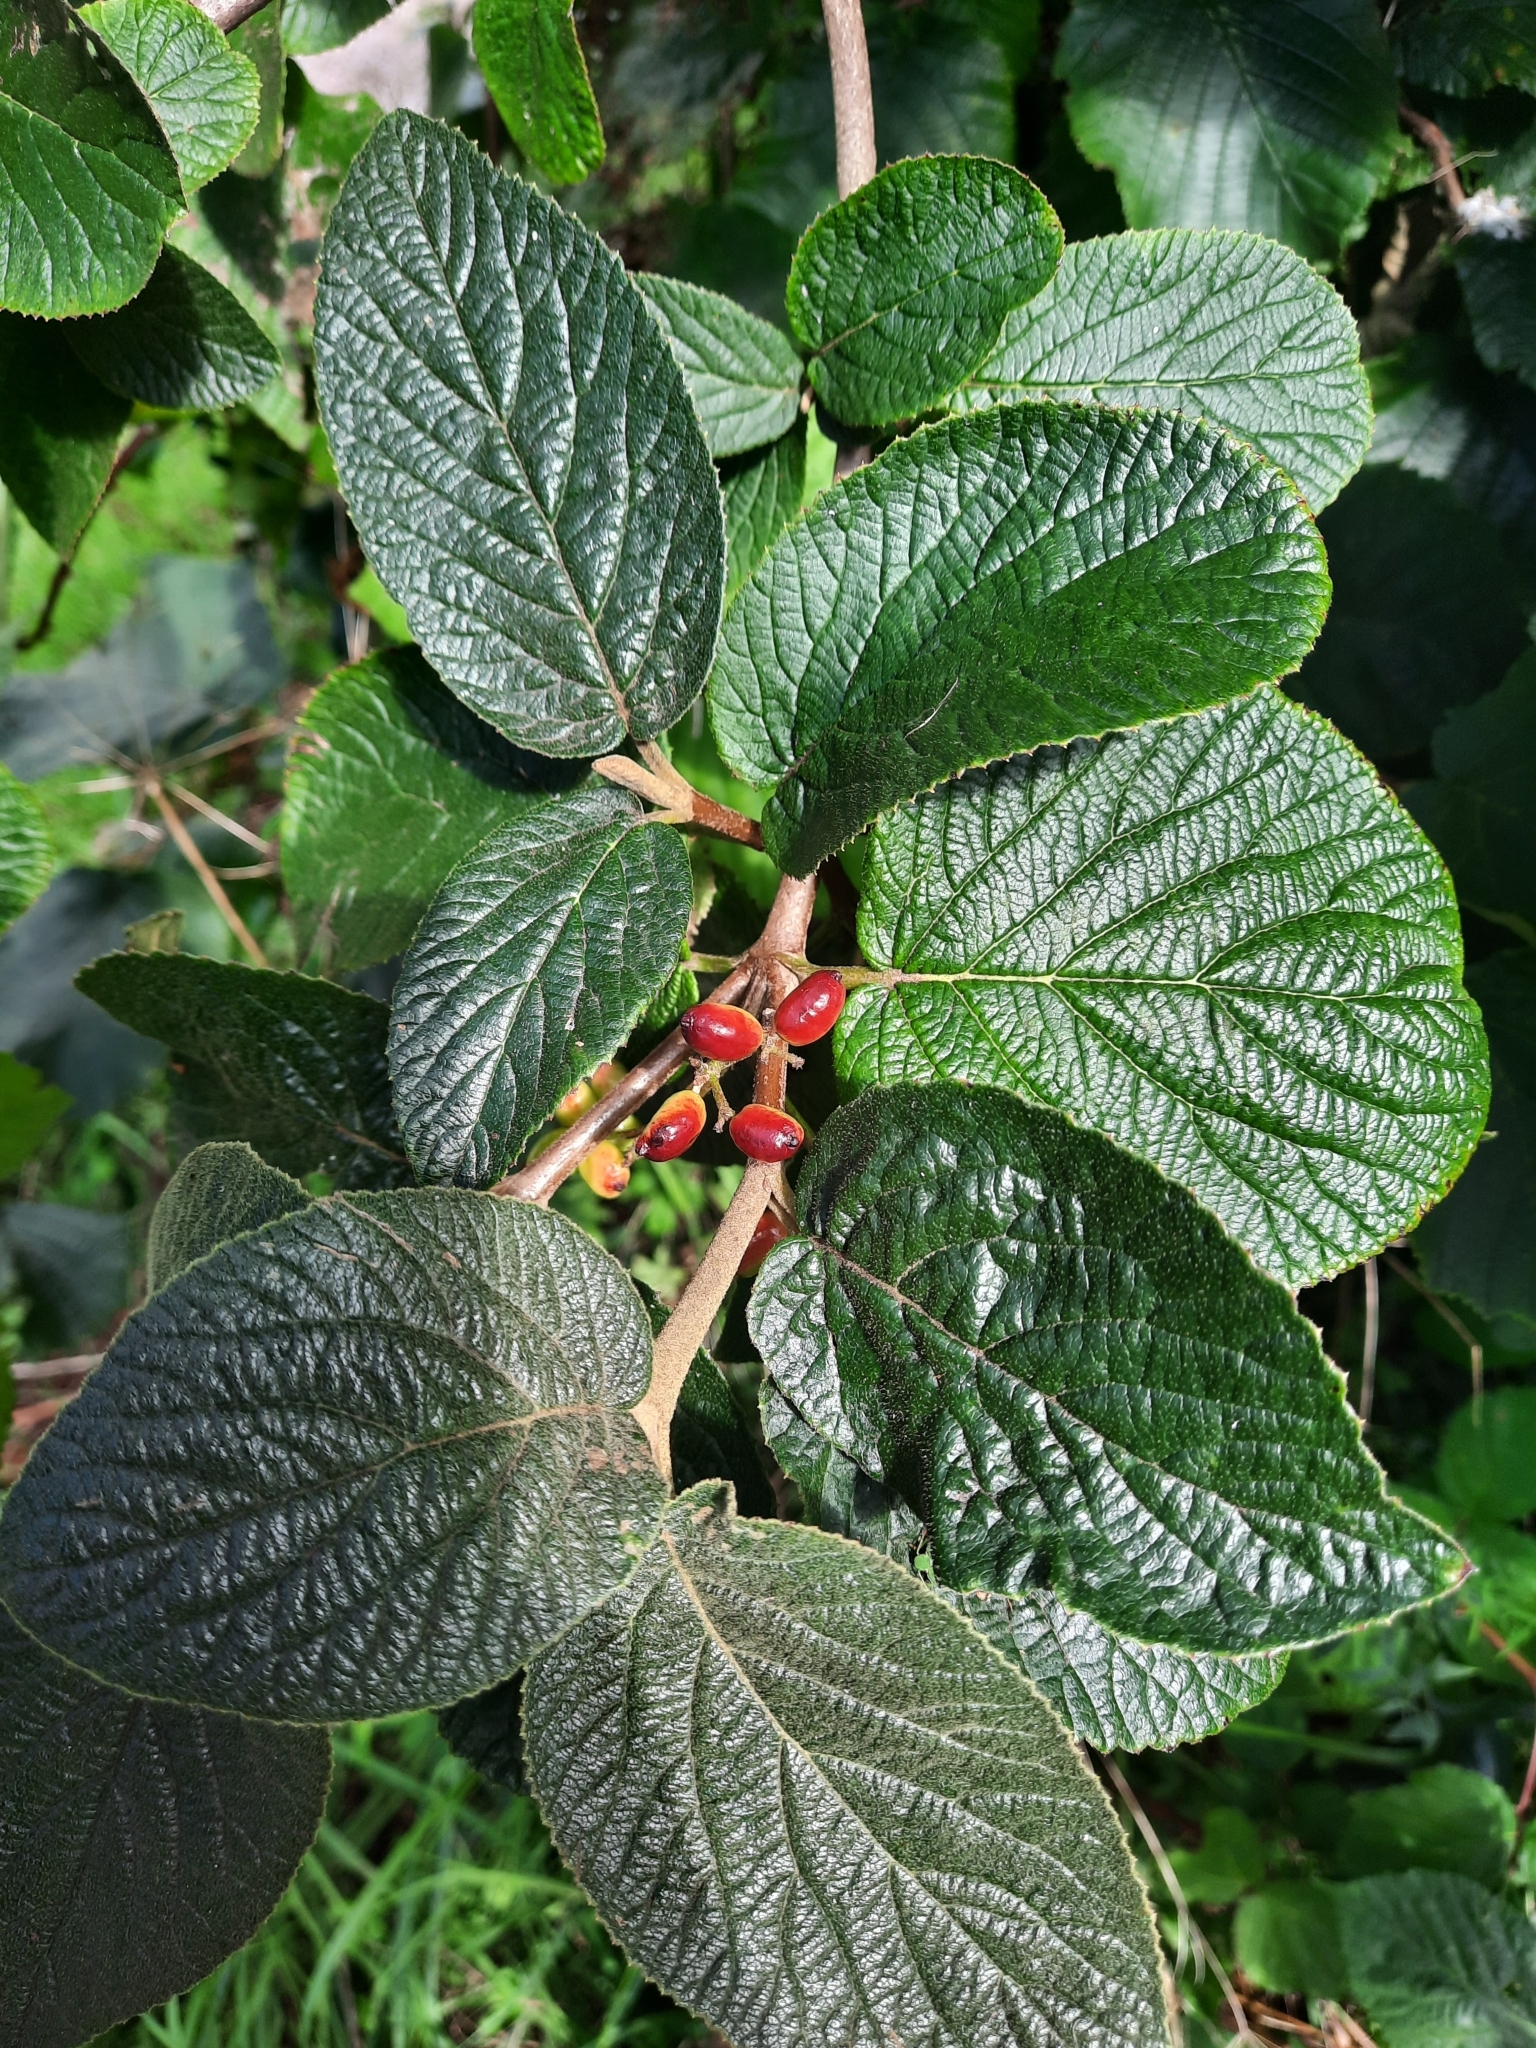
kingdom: Plantae
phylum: Tracheophyta
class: Magnoliopsida
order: Dipsacales
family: Viburnaceae
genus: Viburnum
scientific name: Viburnum lantana
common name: Wayfaring tree
